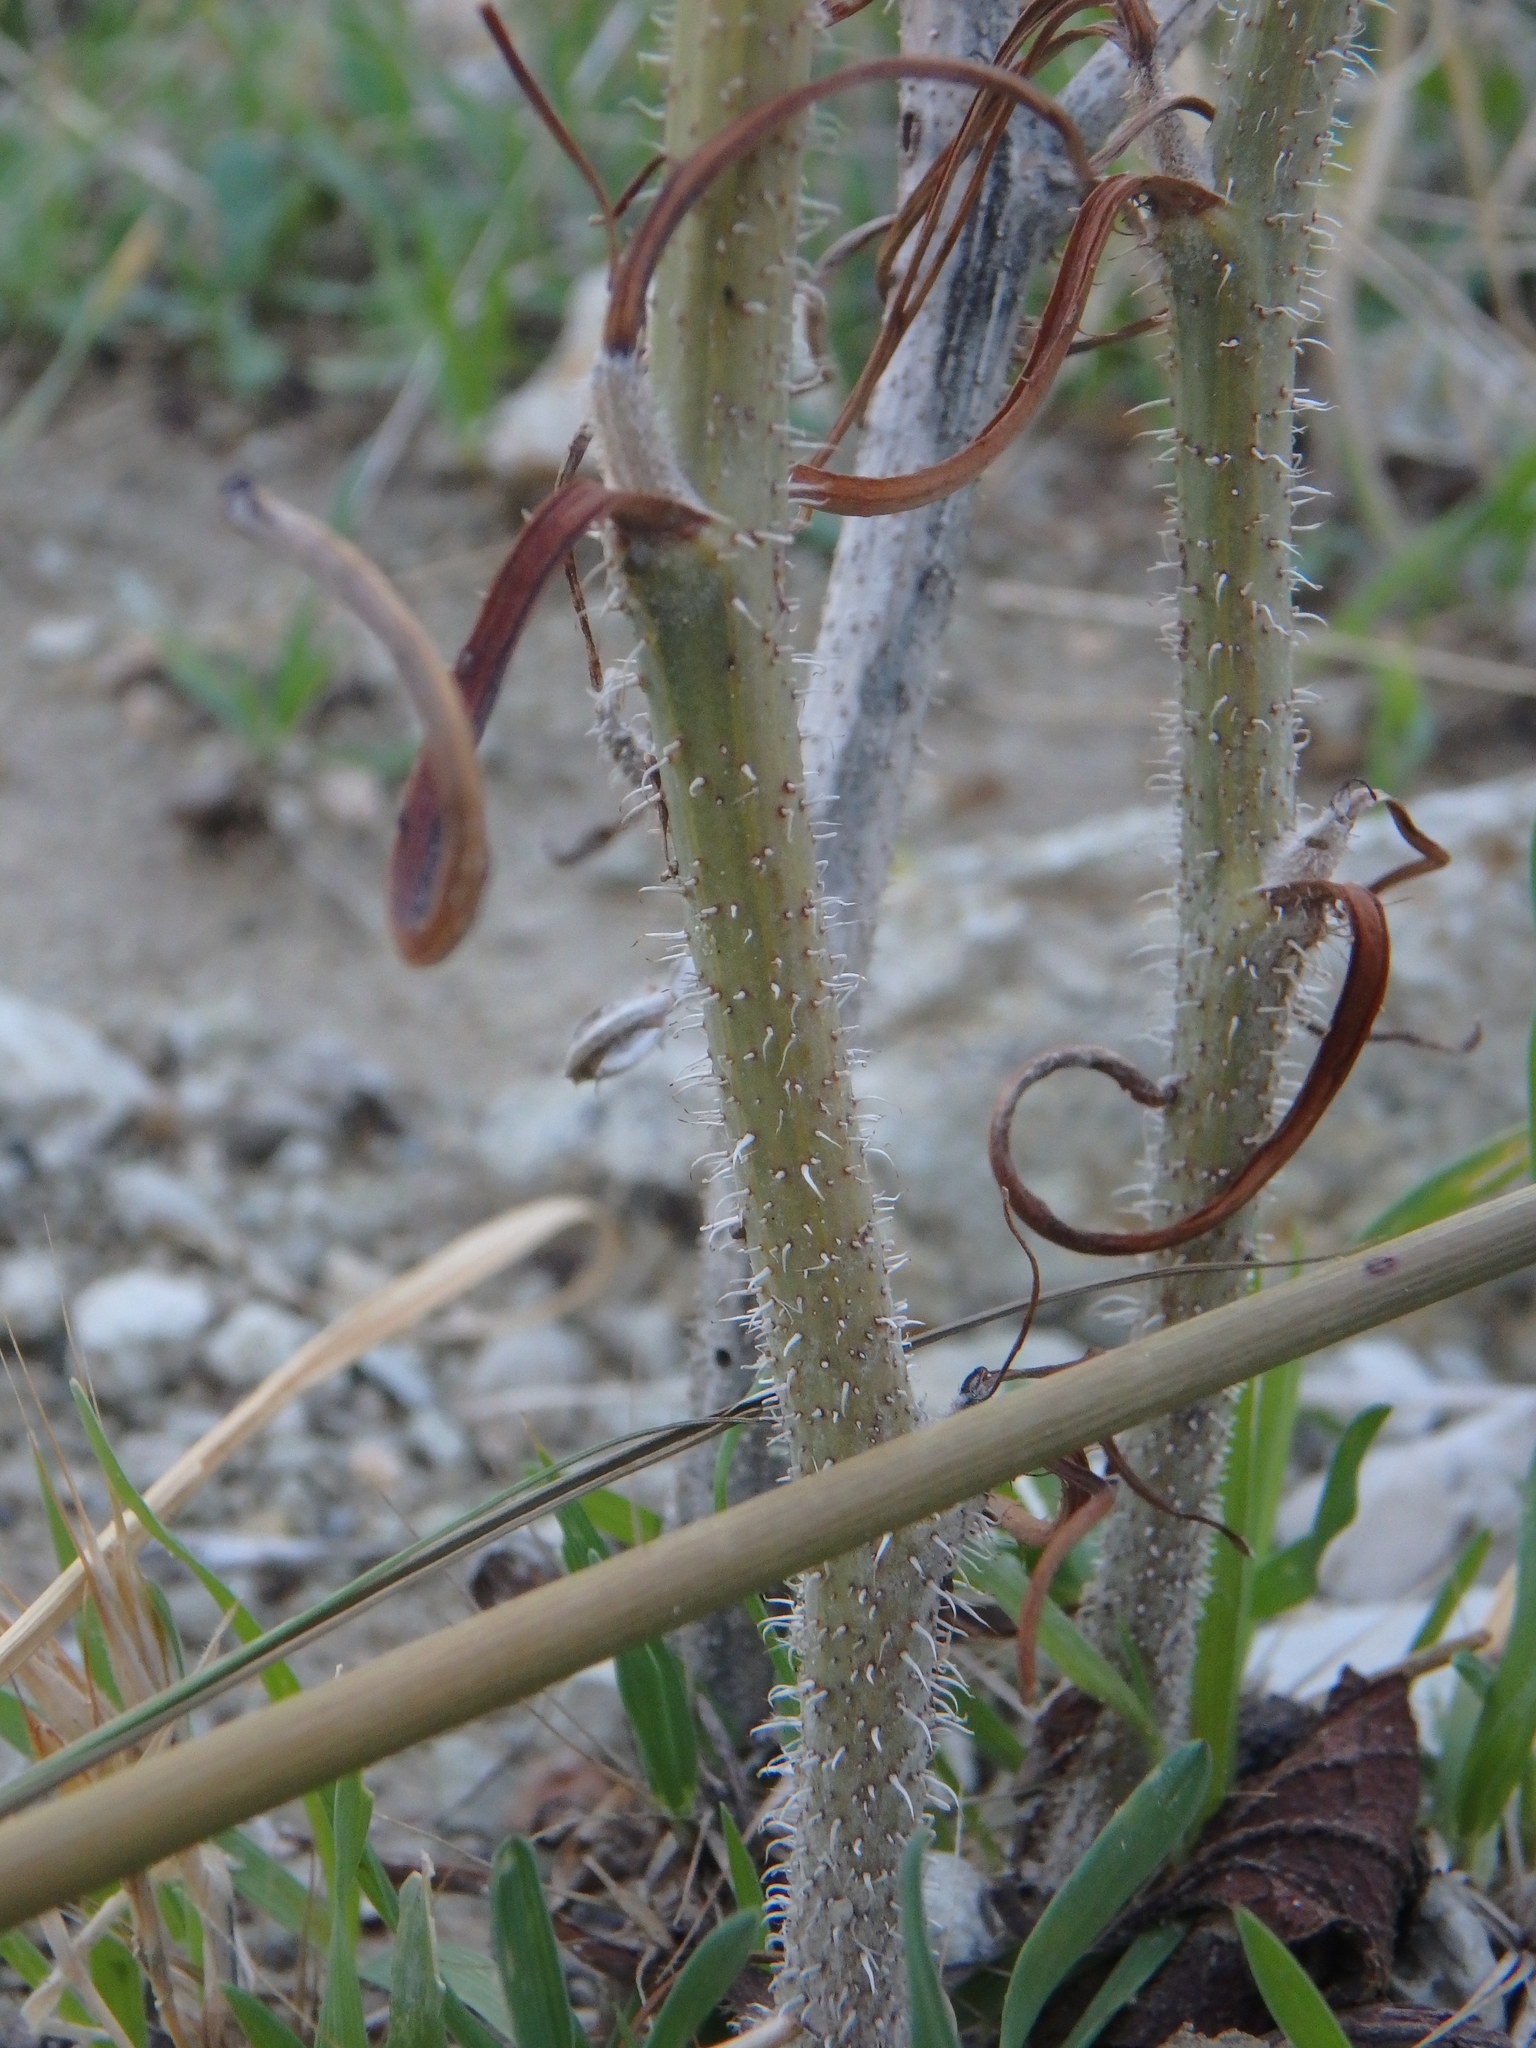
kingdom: Plantae
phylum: Tracheophyta
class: Magnoliopsida
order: Asterales
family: Asteraceae
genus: Chondrilla
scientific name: Chondrilla juncea
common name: Skeleton weed
